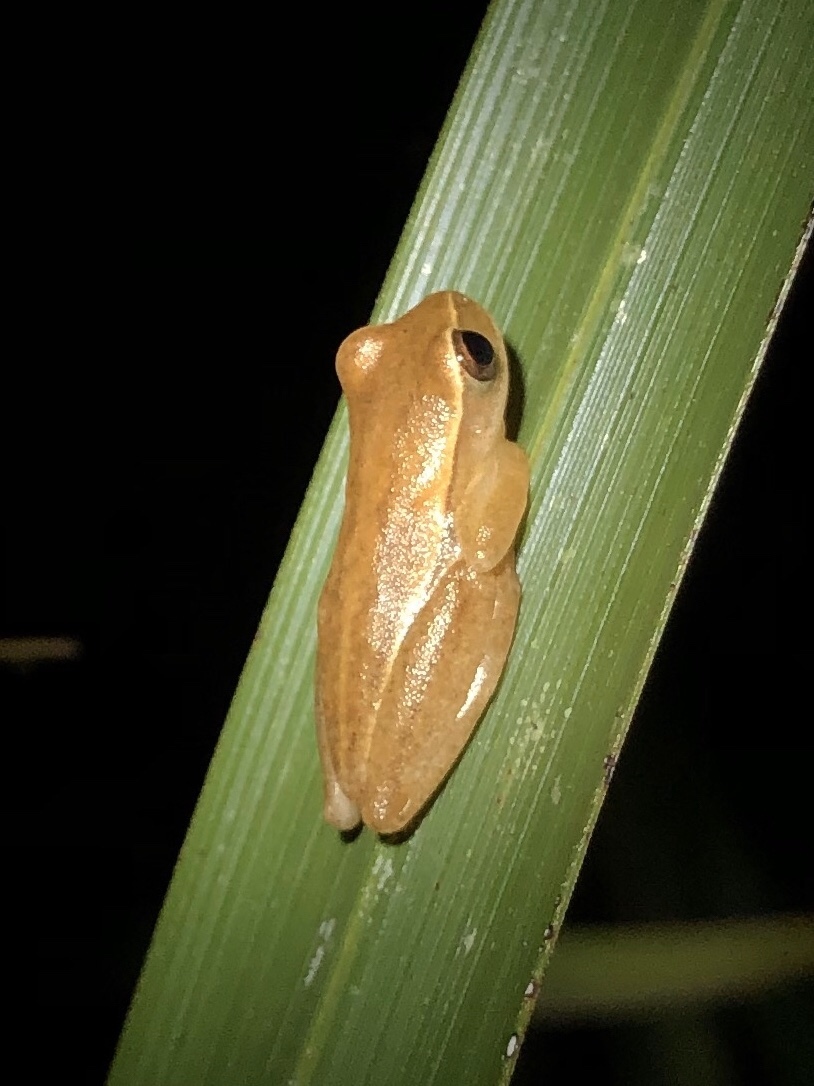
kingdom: Animalia
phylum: Chordata
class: Amphibia
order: Anura
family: Hylidae
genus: Dendropsophus
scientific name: Dendropsophus microcephalus
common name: Small-headed treefrog
